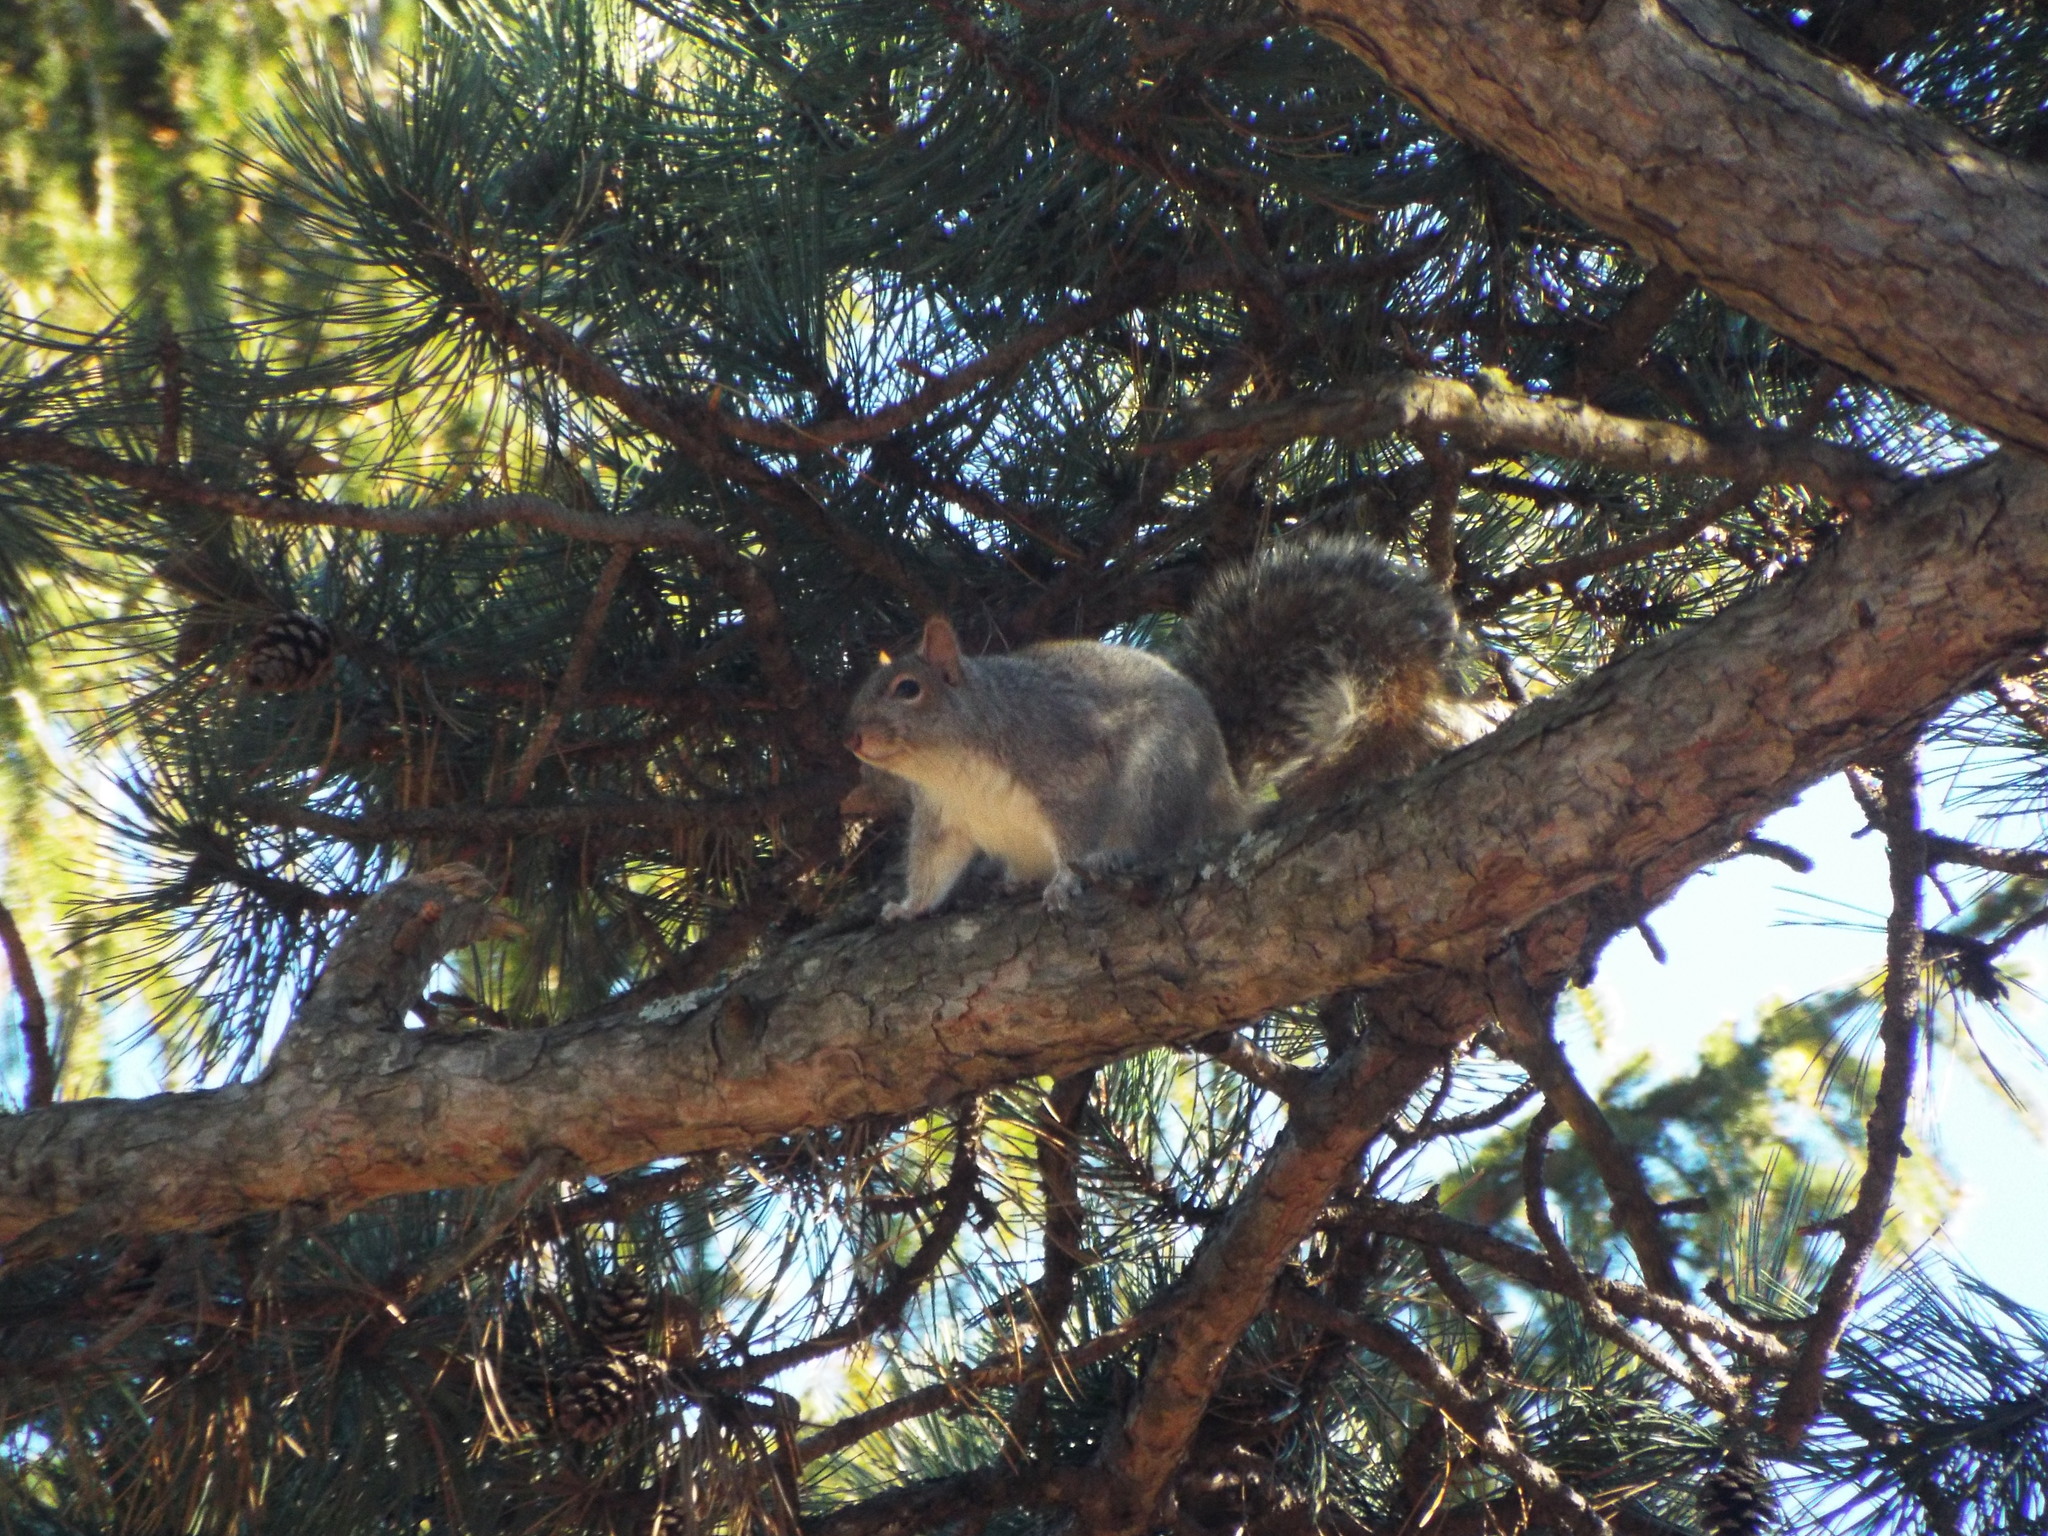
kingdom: Animalia
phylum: Chordata
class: Mammalia
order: Rodentia
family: Sciuridae
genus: Sciurus
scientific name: Sciurus carolinensis
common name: Eastern gray squirrel
